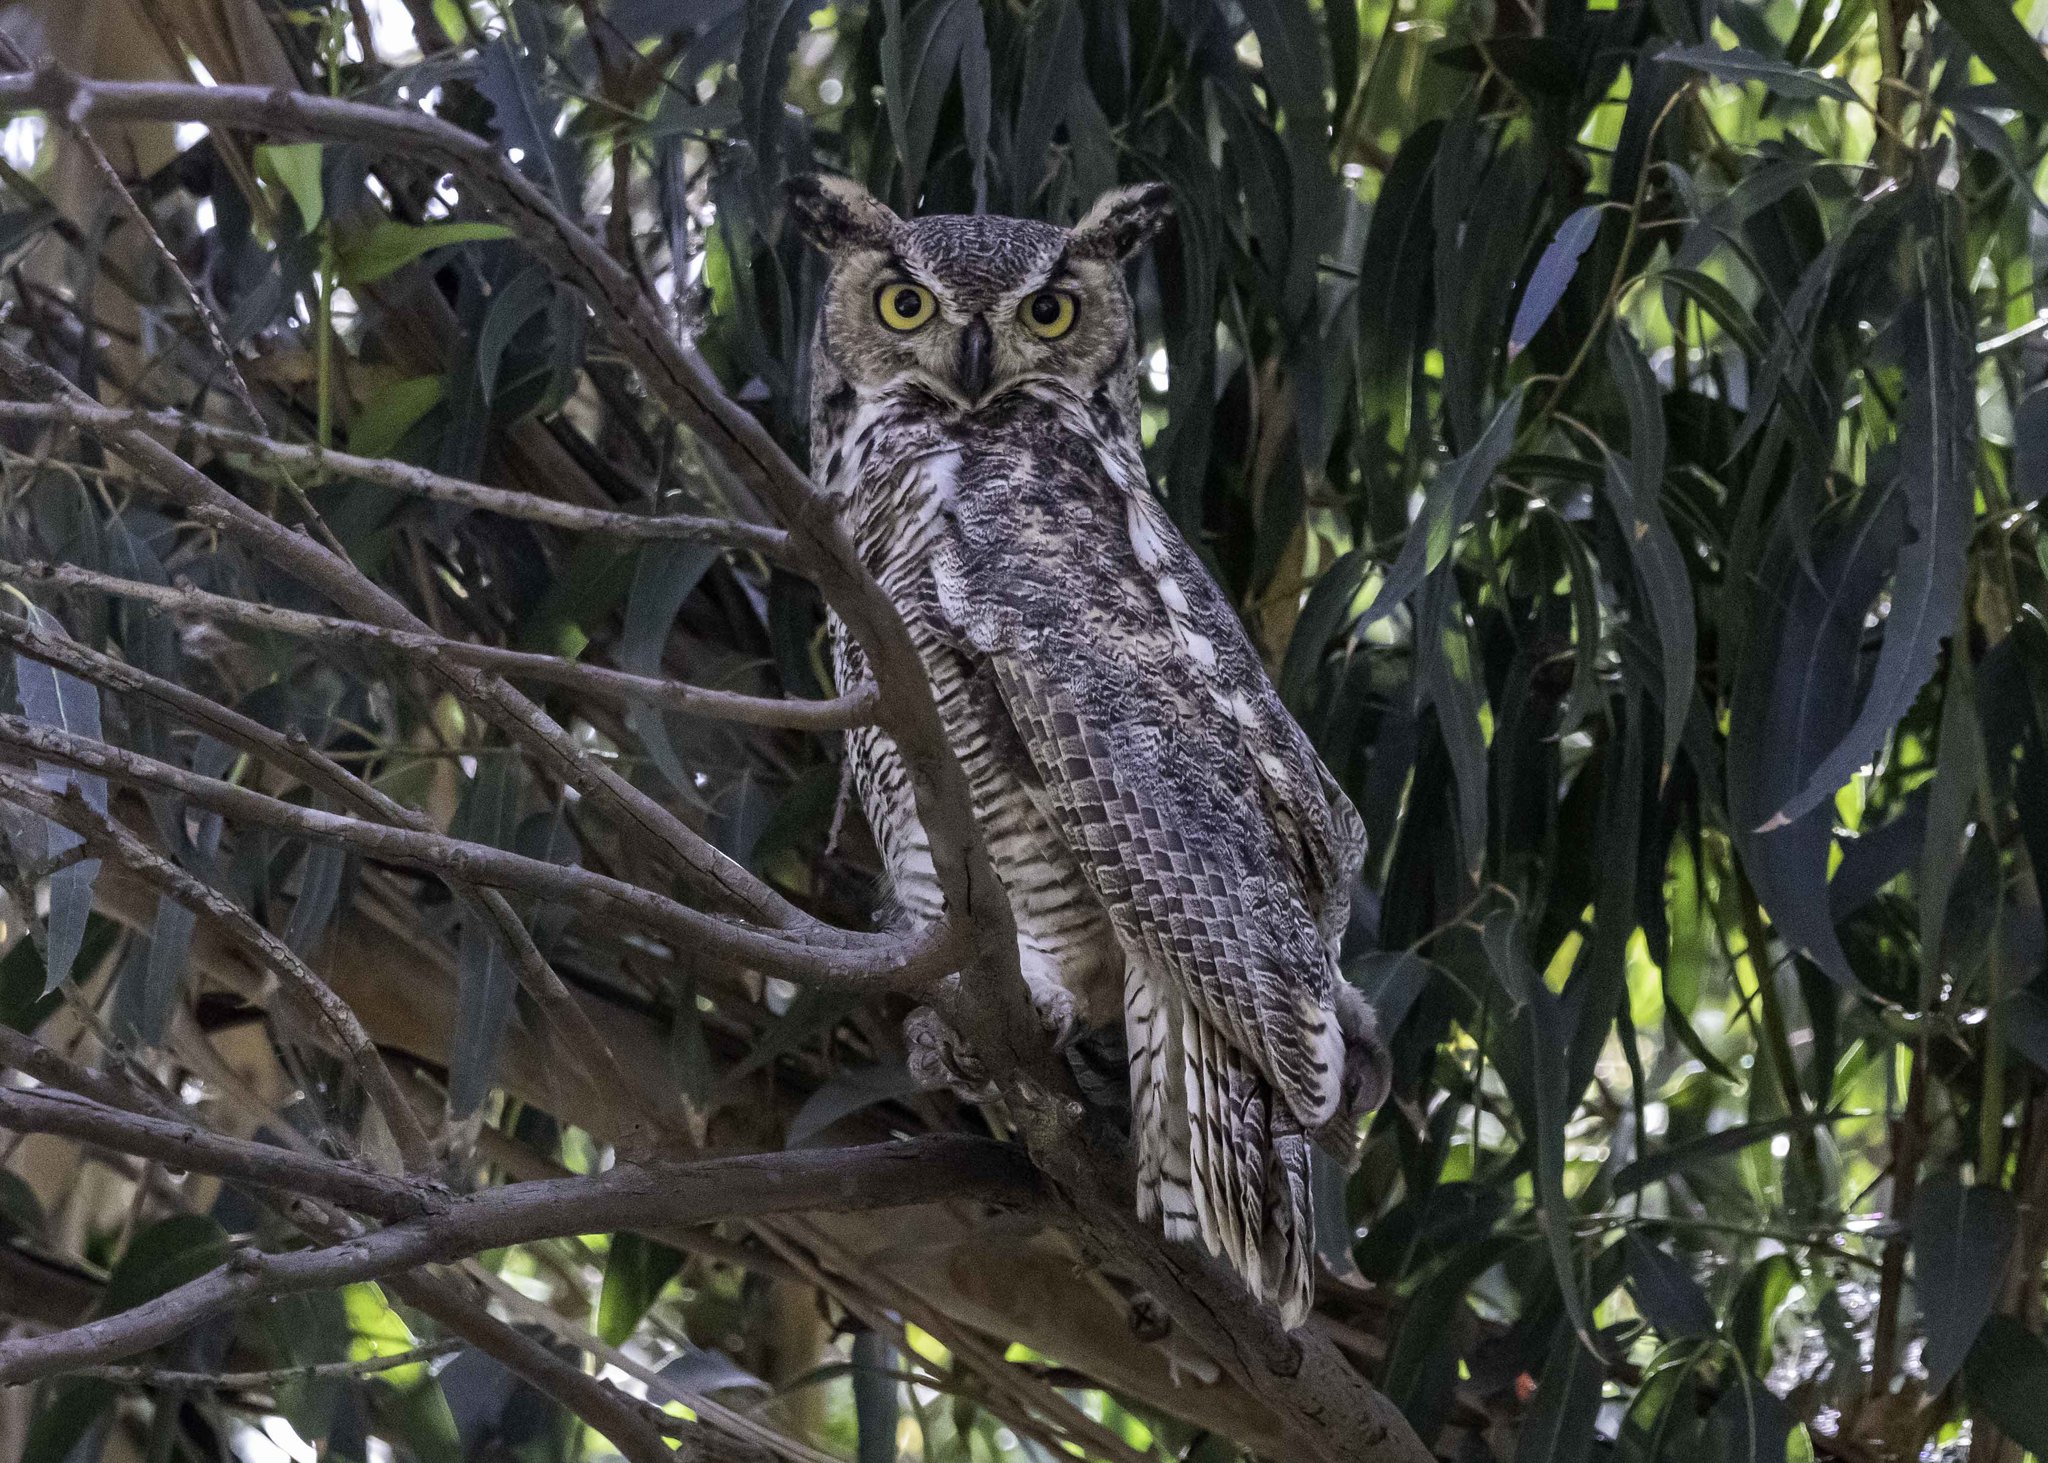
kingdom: Animalia
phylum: Chordata
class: Aves
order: Strigiformes
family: Strigidae
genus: Bubo
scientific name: Bubo virginianus
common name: Great horned owl
